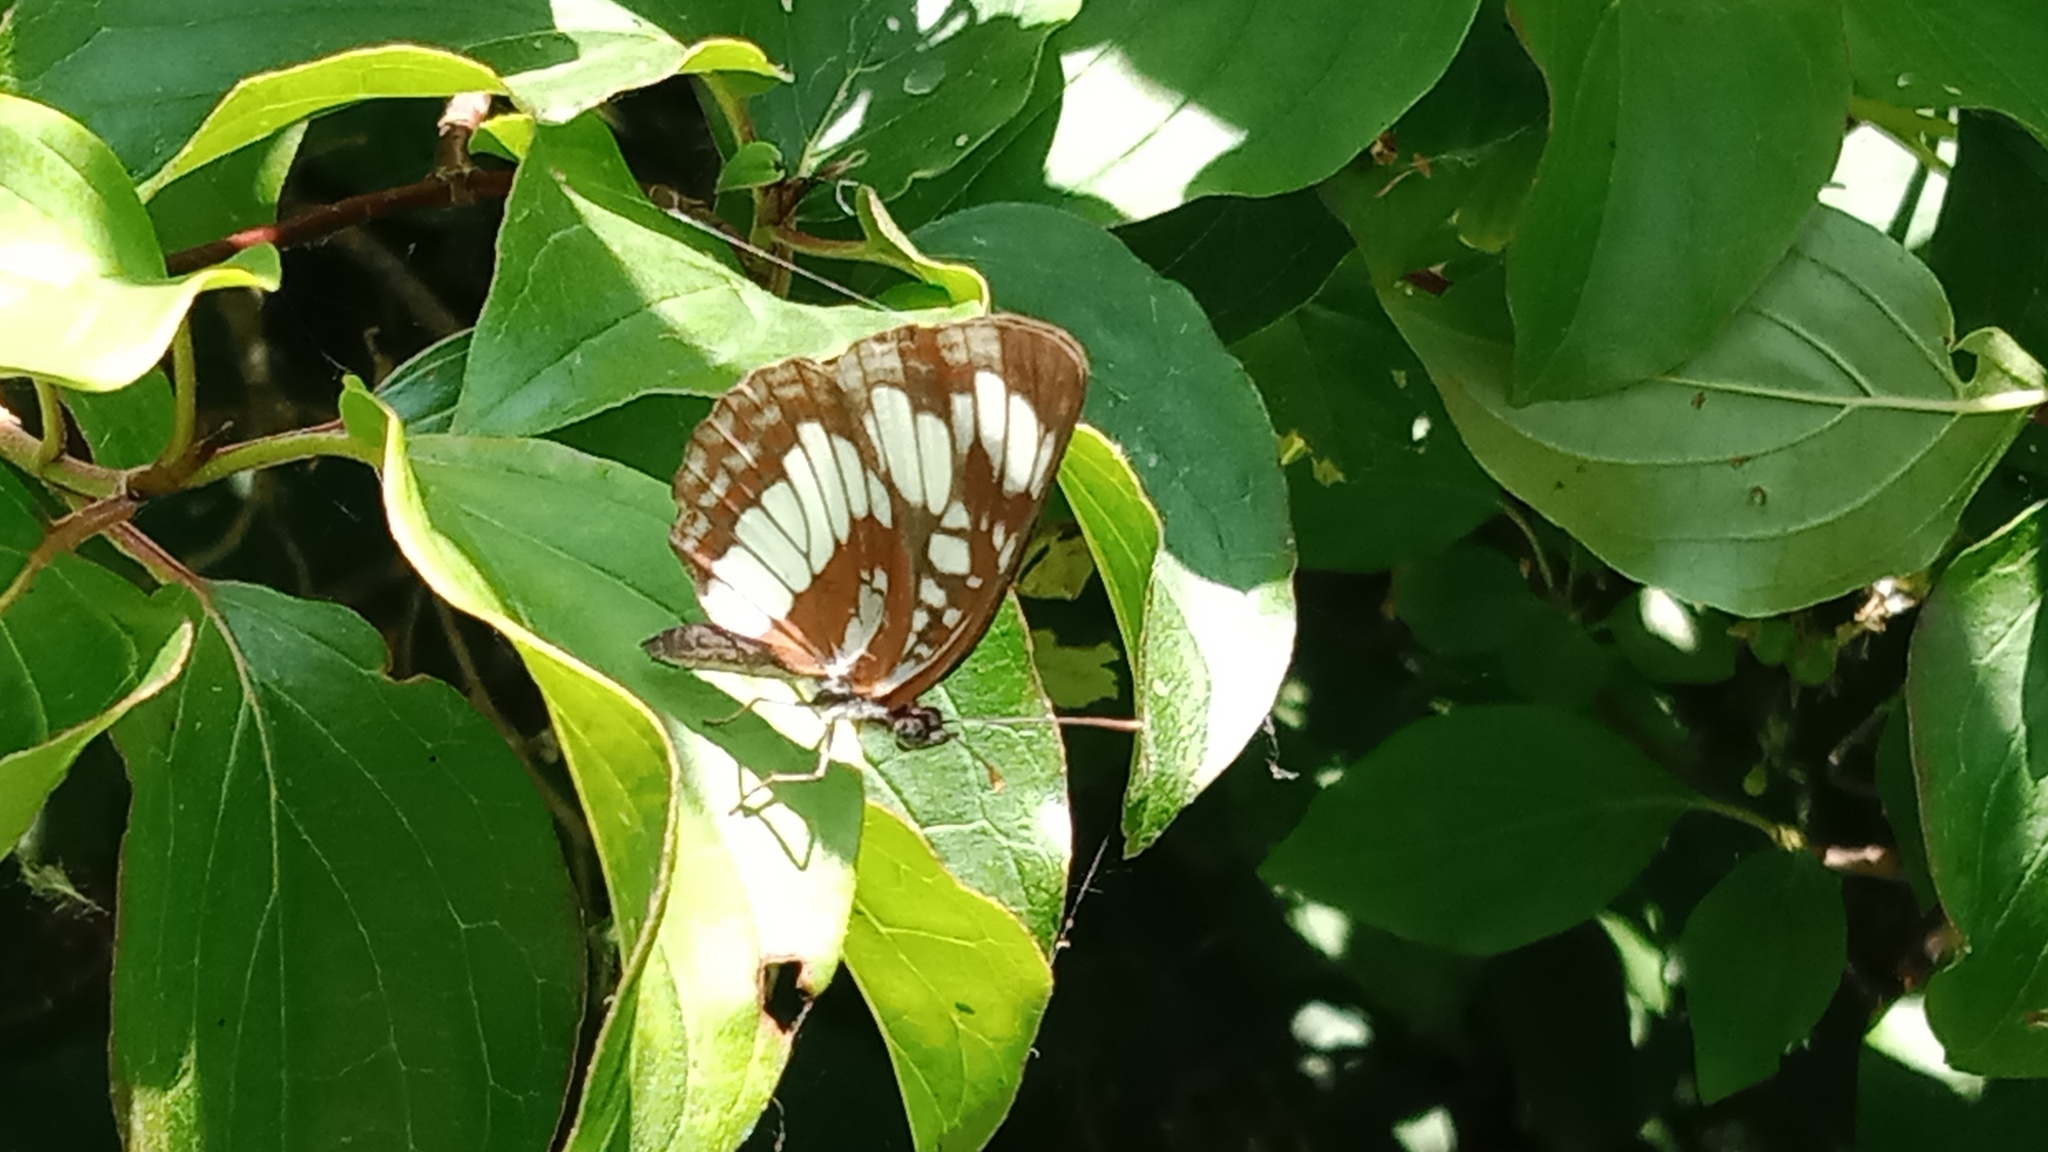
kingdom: Animalia
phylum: Arthropoda
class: Insecta
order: Lepidoptera
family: Nymphalidae
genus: Neptis
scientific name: Neptis rivularis
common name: Hungarian glider
